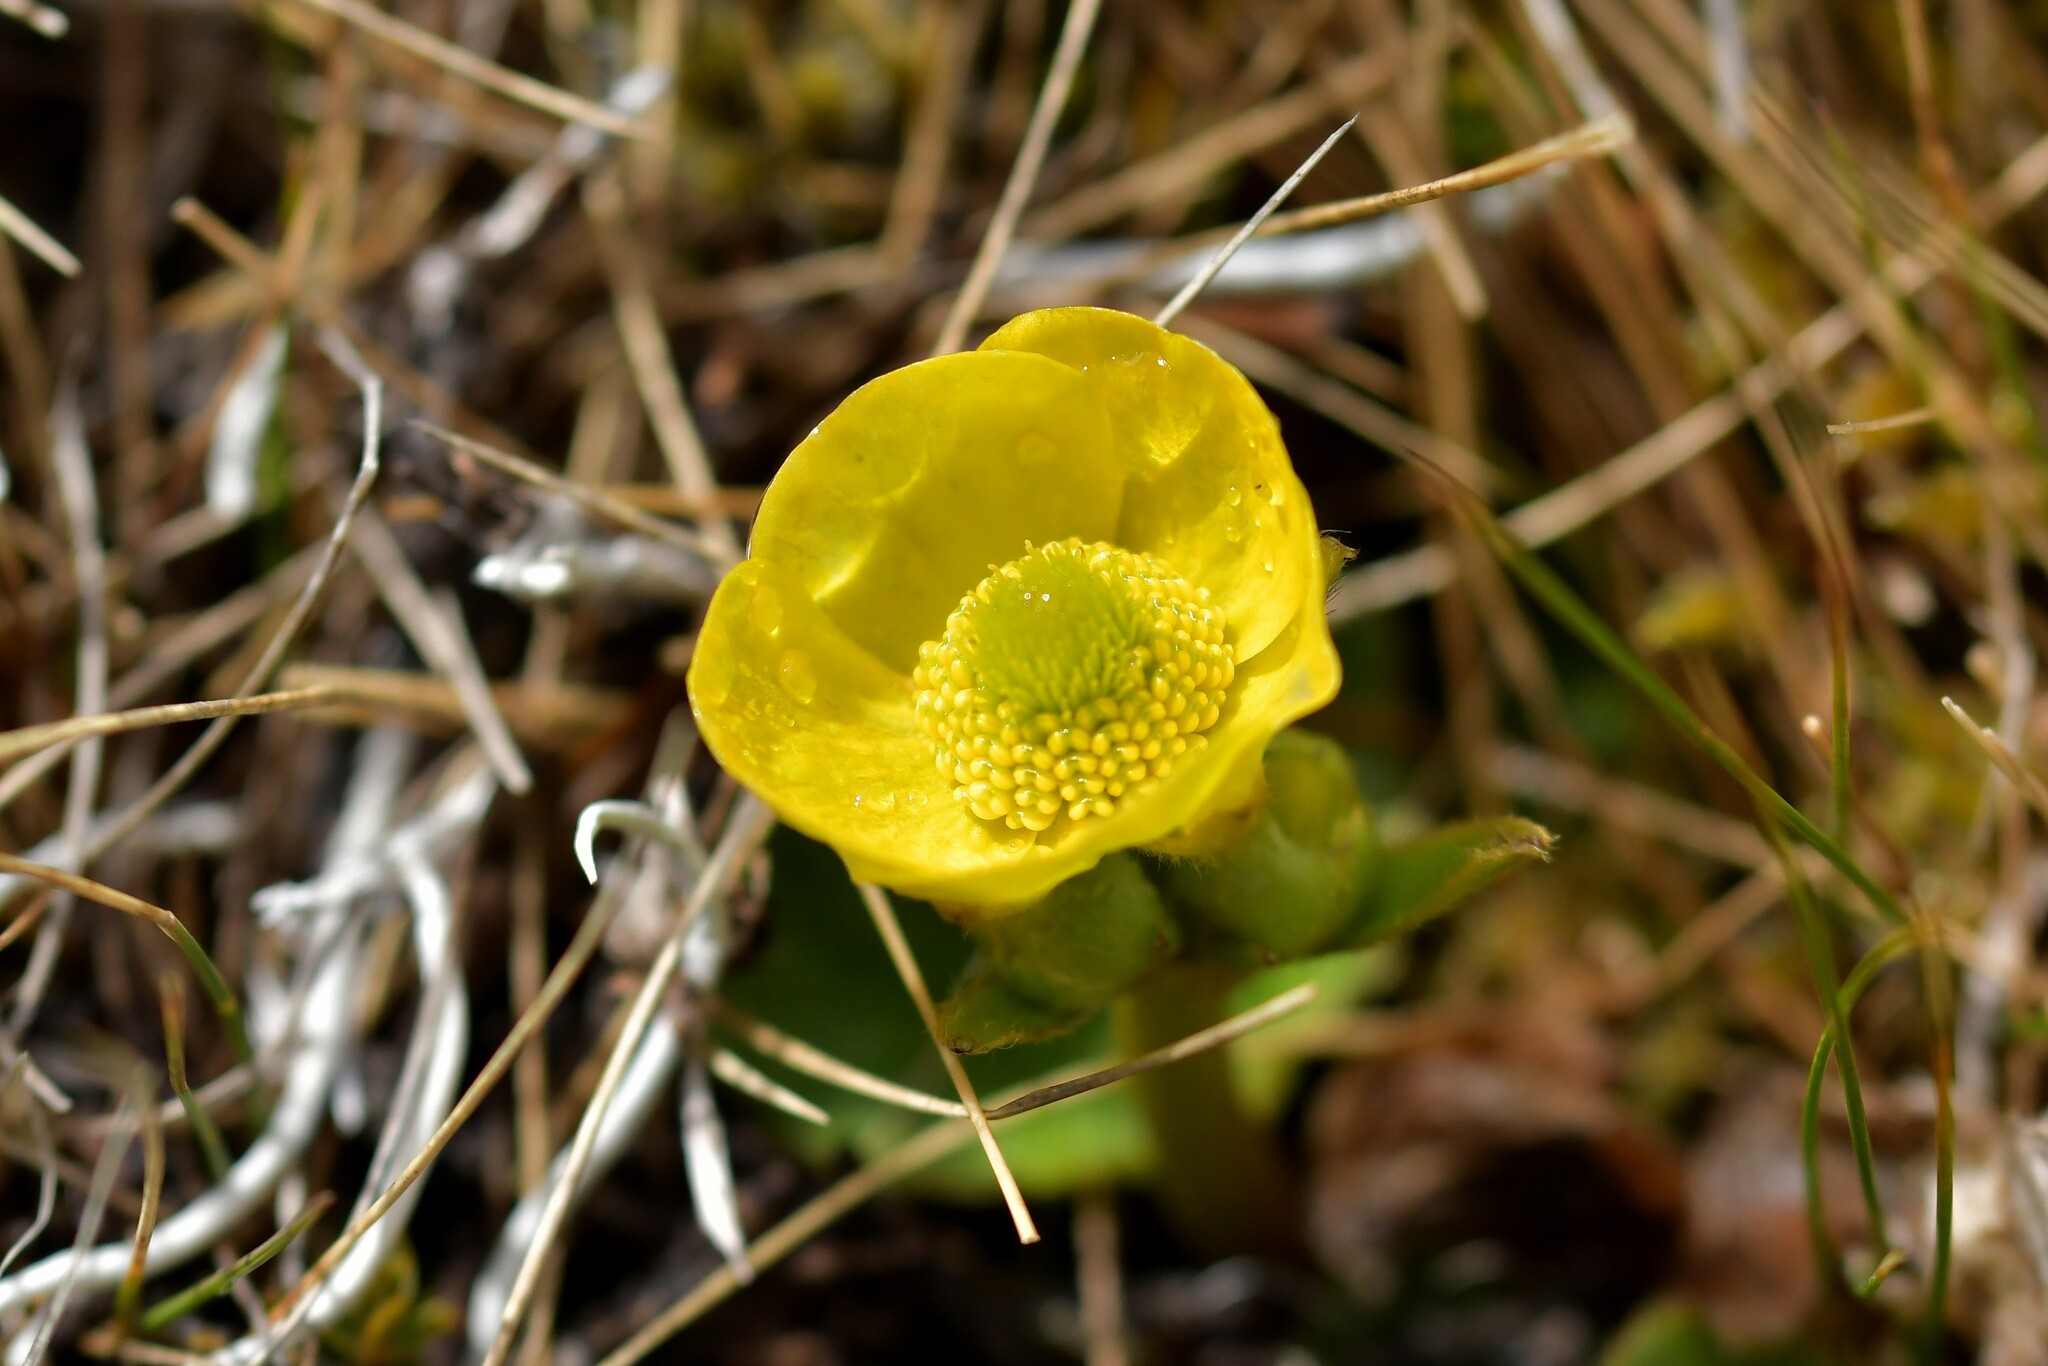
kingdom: Plantae
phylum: Tracheophyta
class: Magnoliopsida
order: Ranunculales
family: Ranunculaceae
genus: Ranunculus
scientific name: Ranunculus insignis
